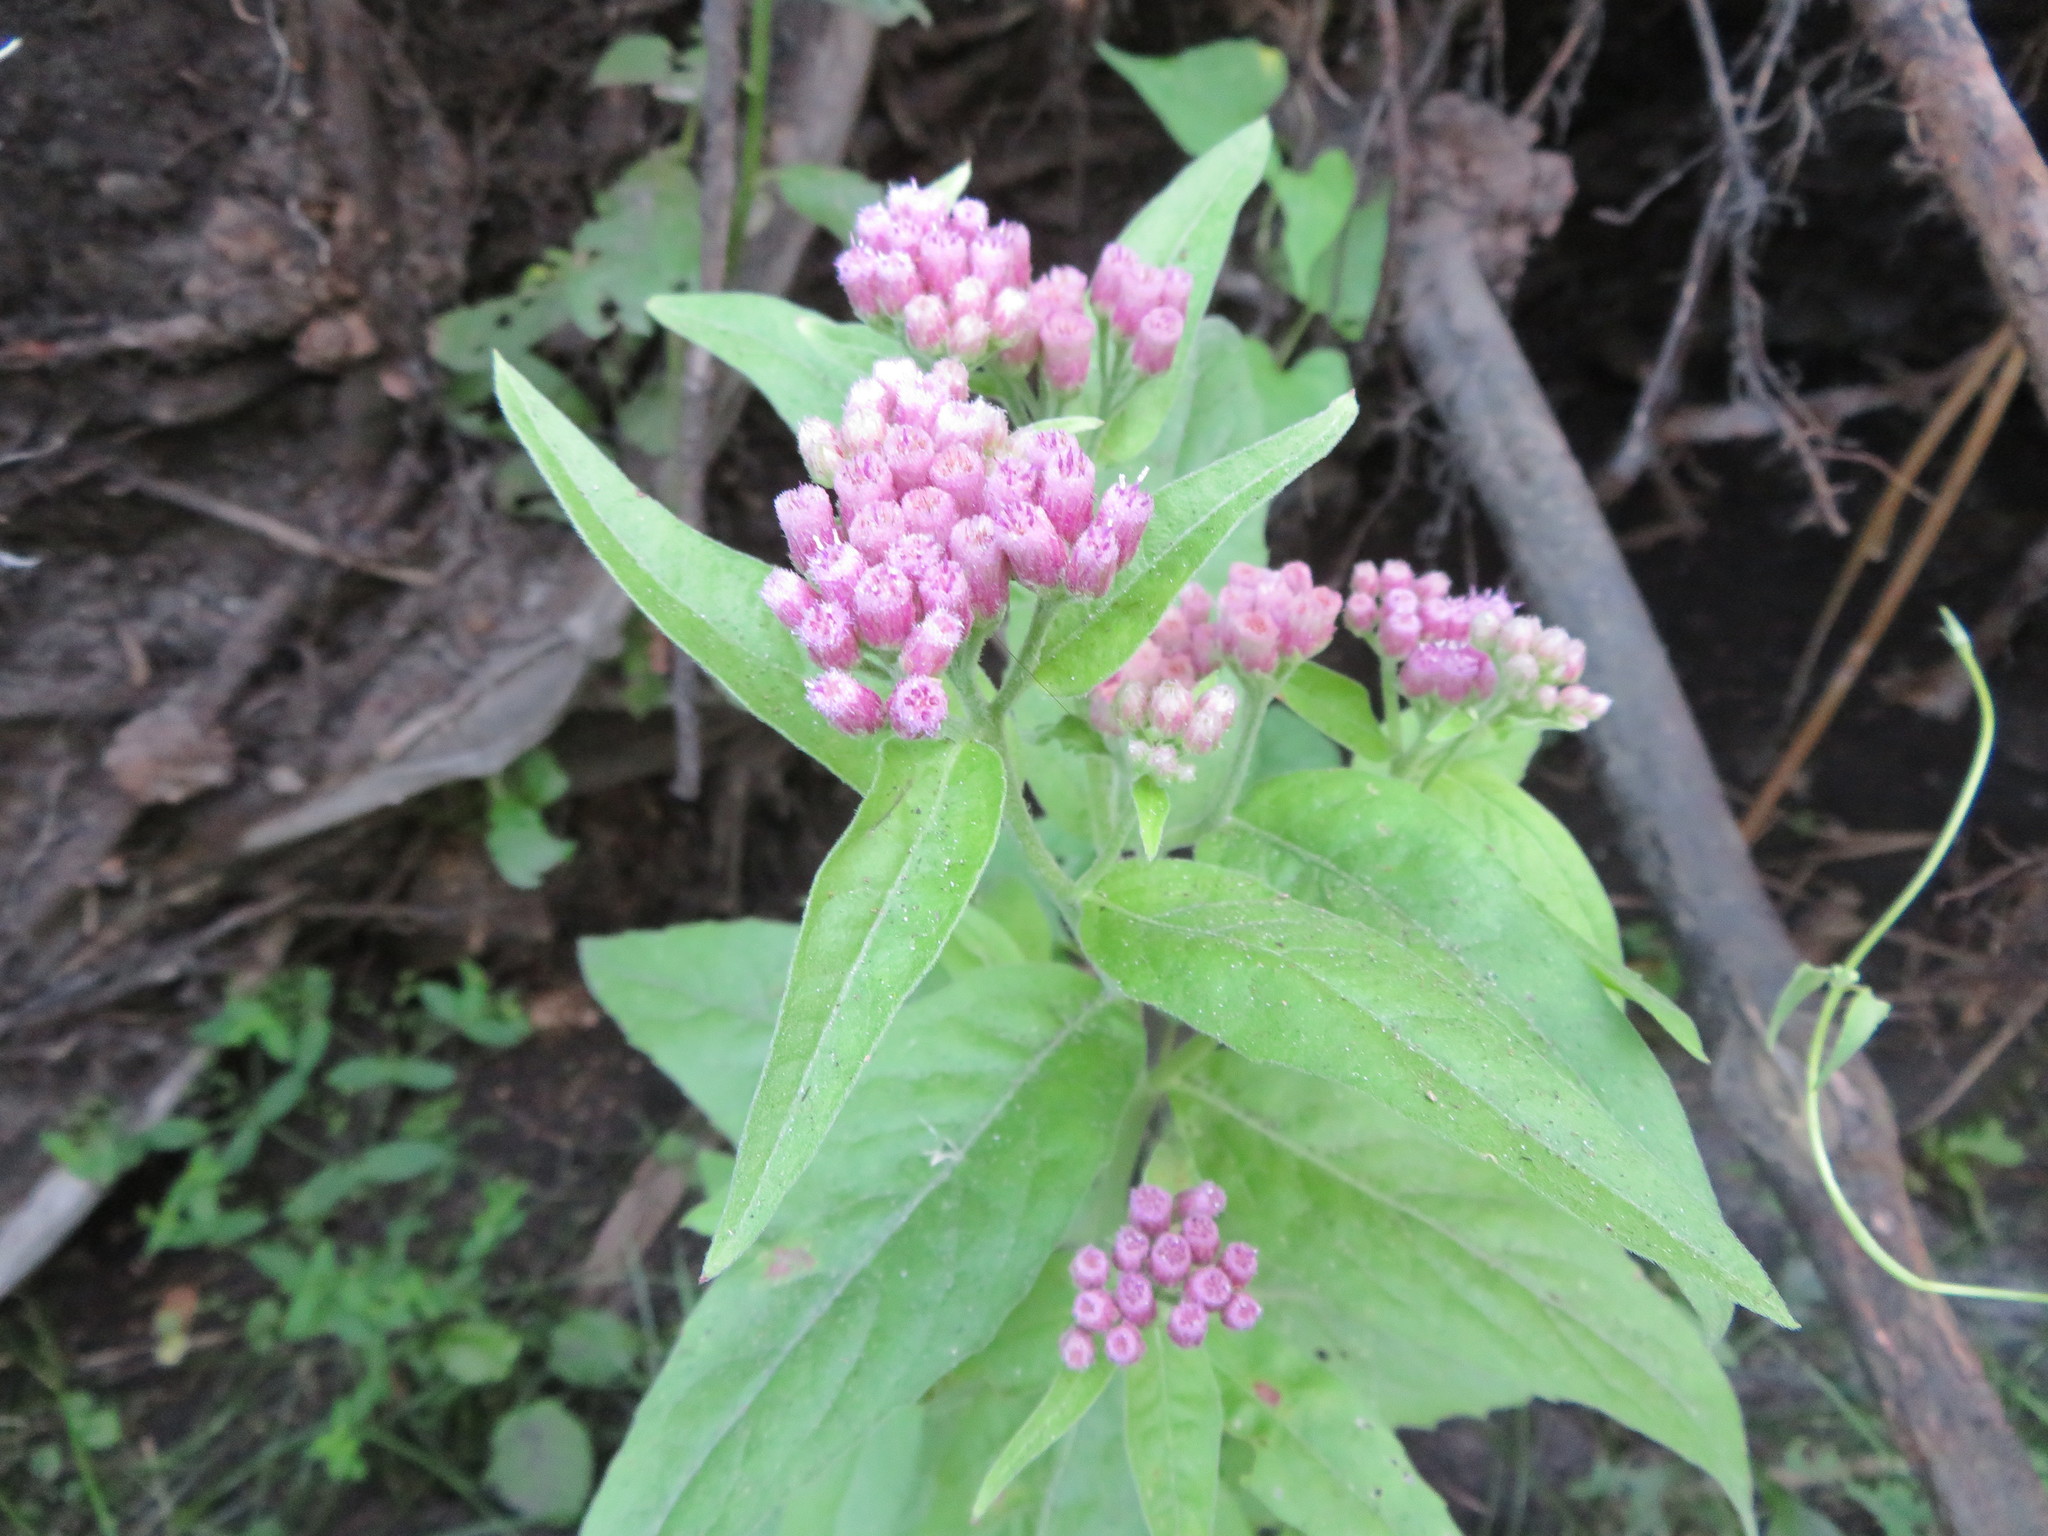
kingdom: Plantae
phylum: Tracheophyta
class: Magnoliopsida
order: Asterales
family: Asteraceae
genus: Pluchea
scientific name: Pluchea odorata
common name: Saltmarsh fleabane
